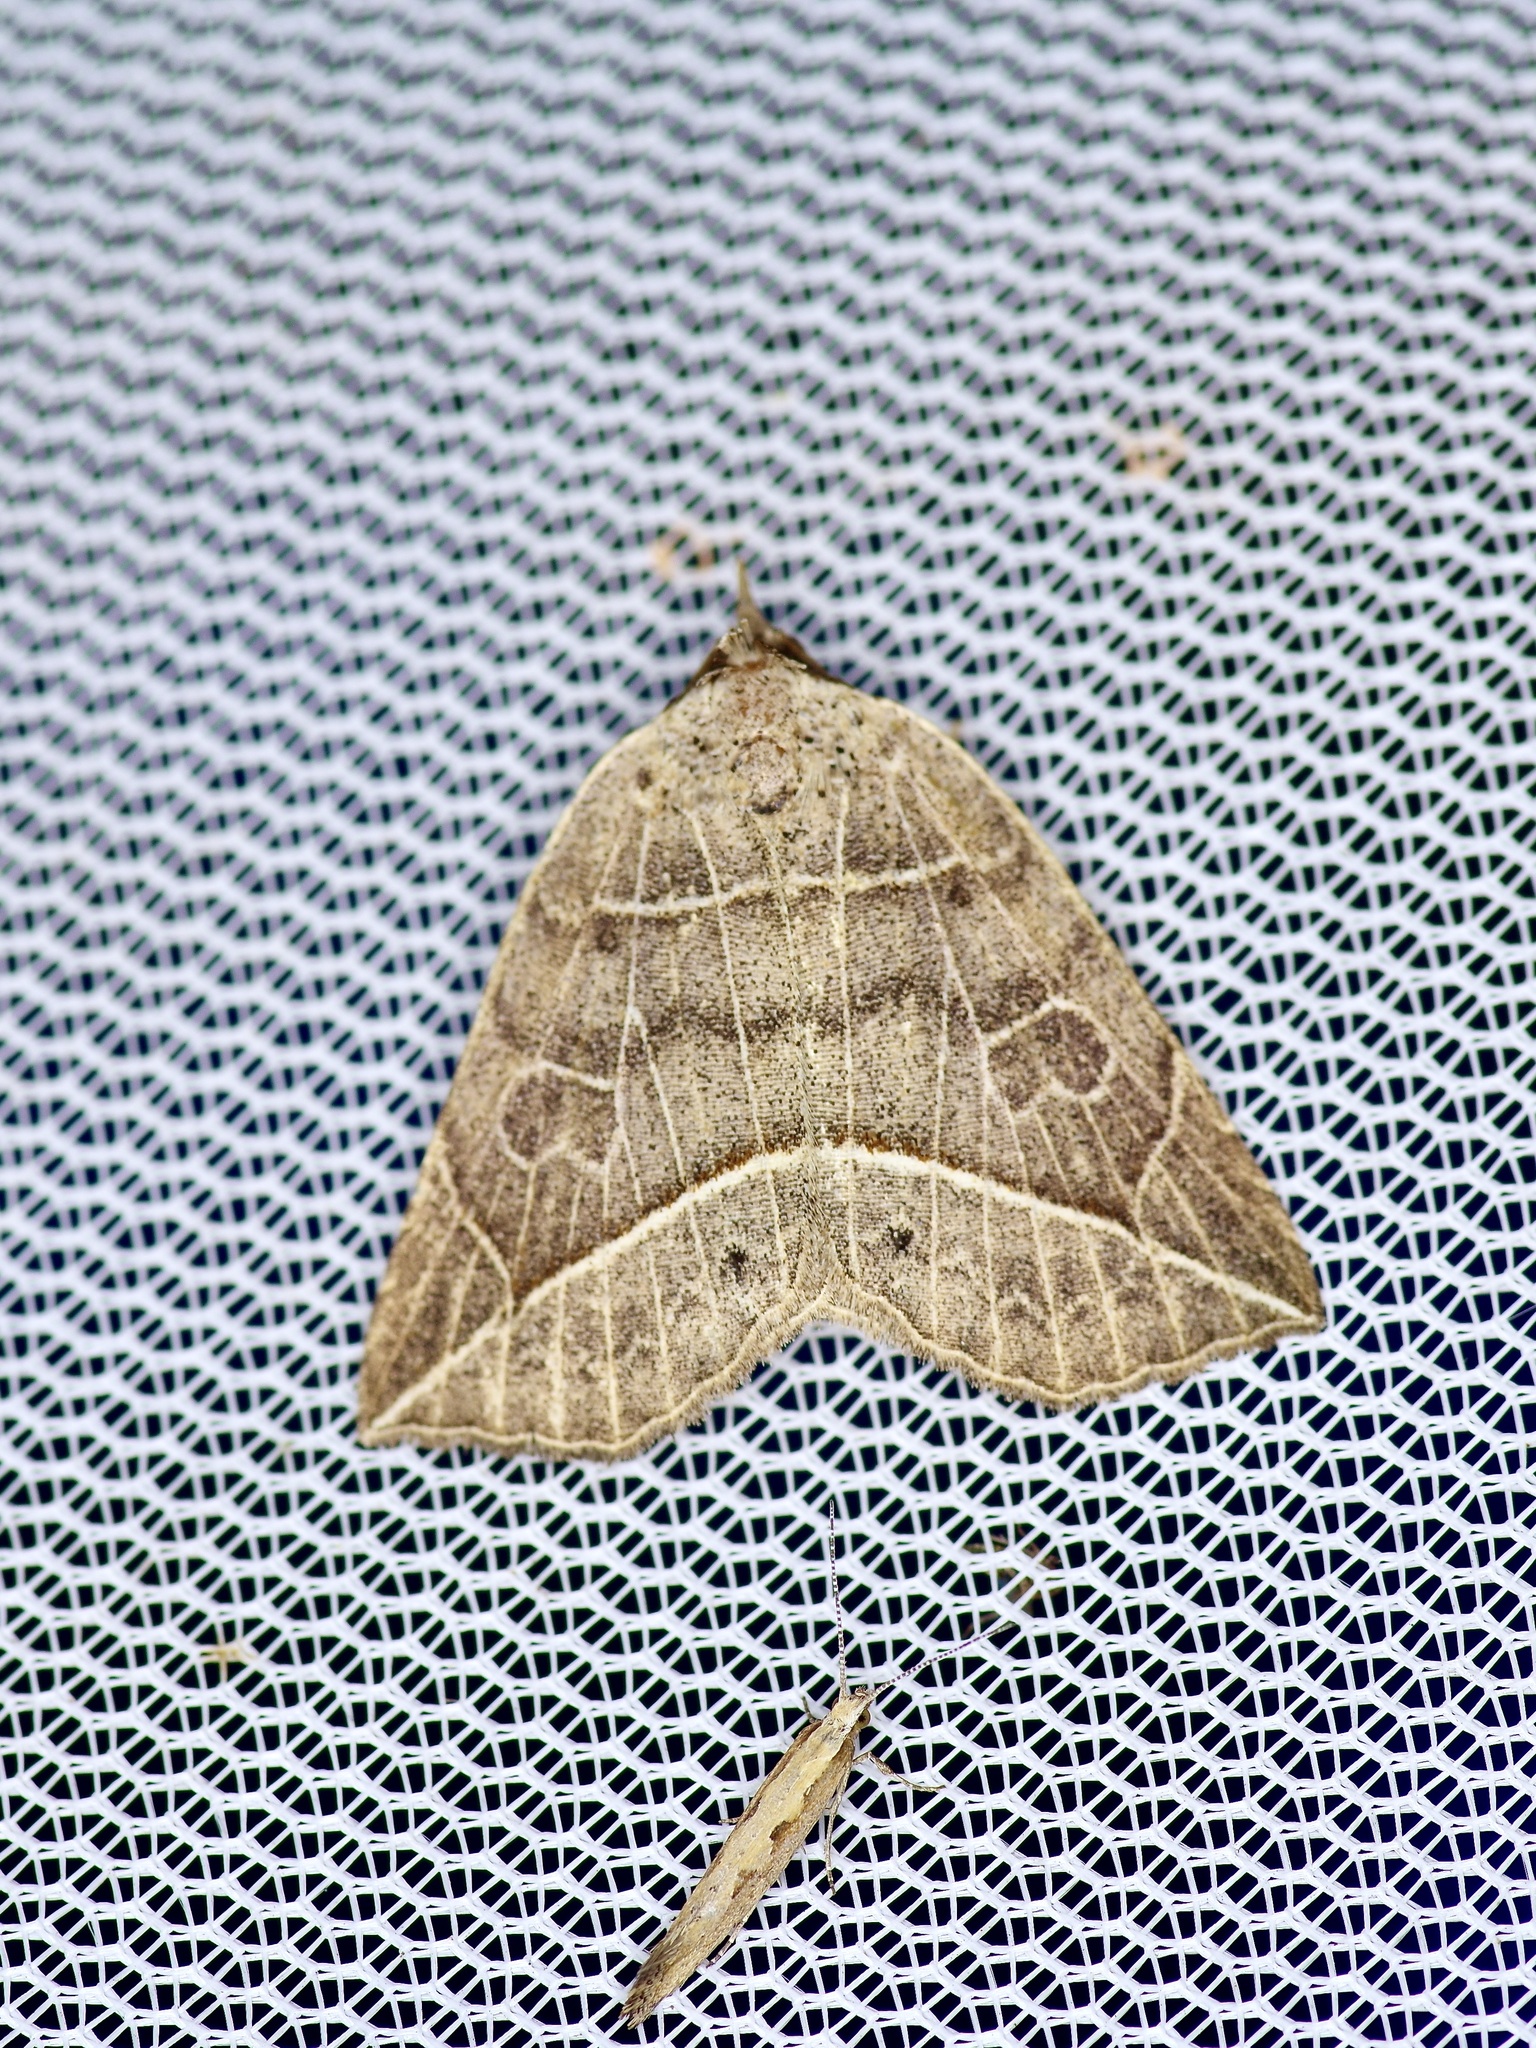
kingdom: Animalia
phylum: Arthropoda
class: Insecta
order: Lepidoptera
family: Erebidae
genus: Isogona
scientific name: Isogona tenuis
